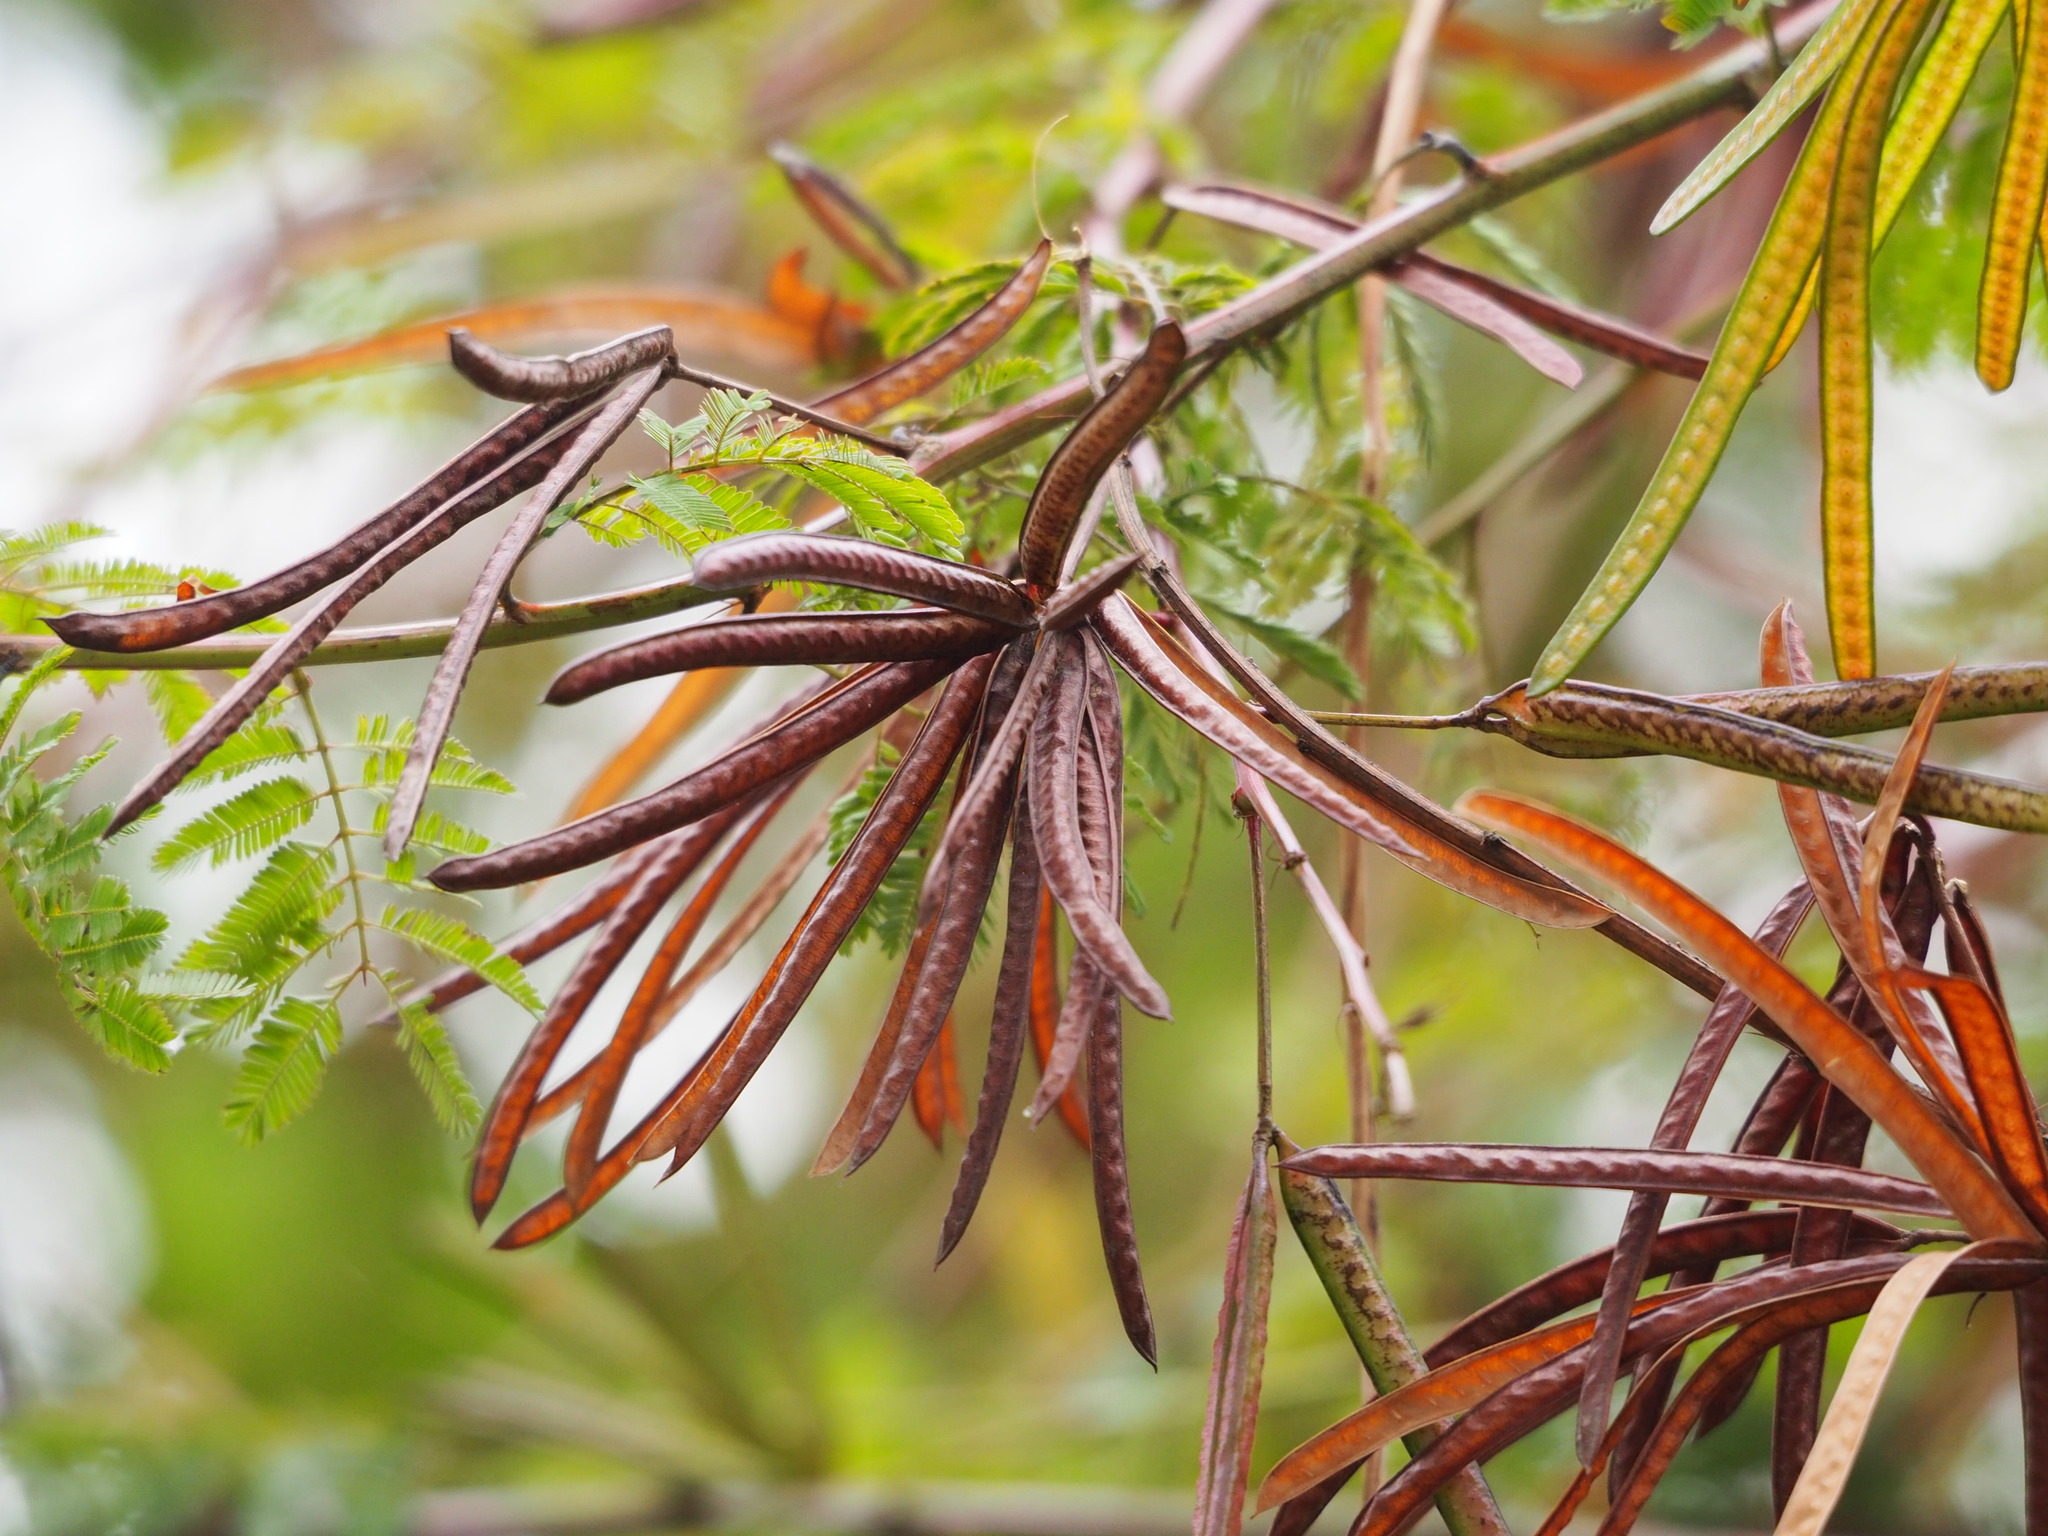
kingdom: Plantae
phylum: Tracheophyta
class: Magnoliopsida
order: Fabales
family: Fabaceae
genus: Desmanthus
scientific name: Desmanthus virgatus
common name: Wild tantan
